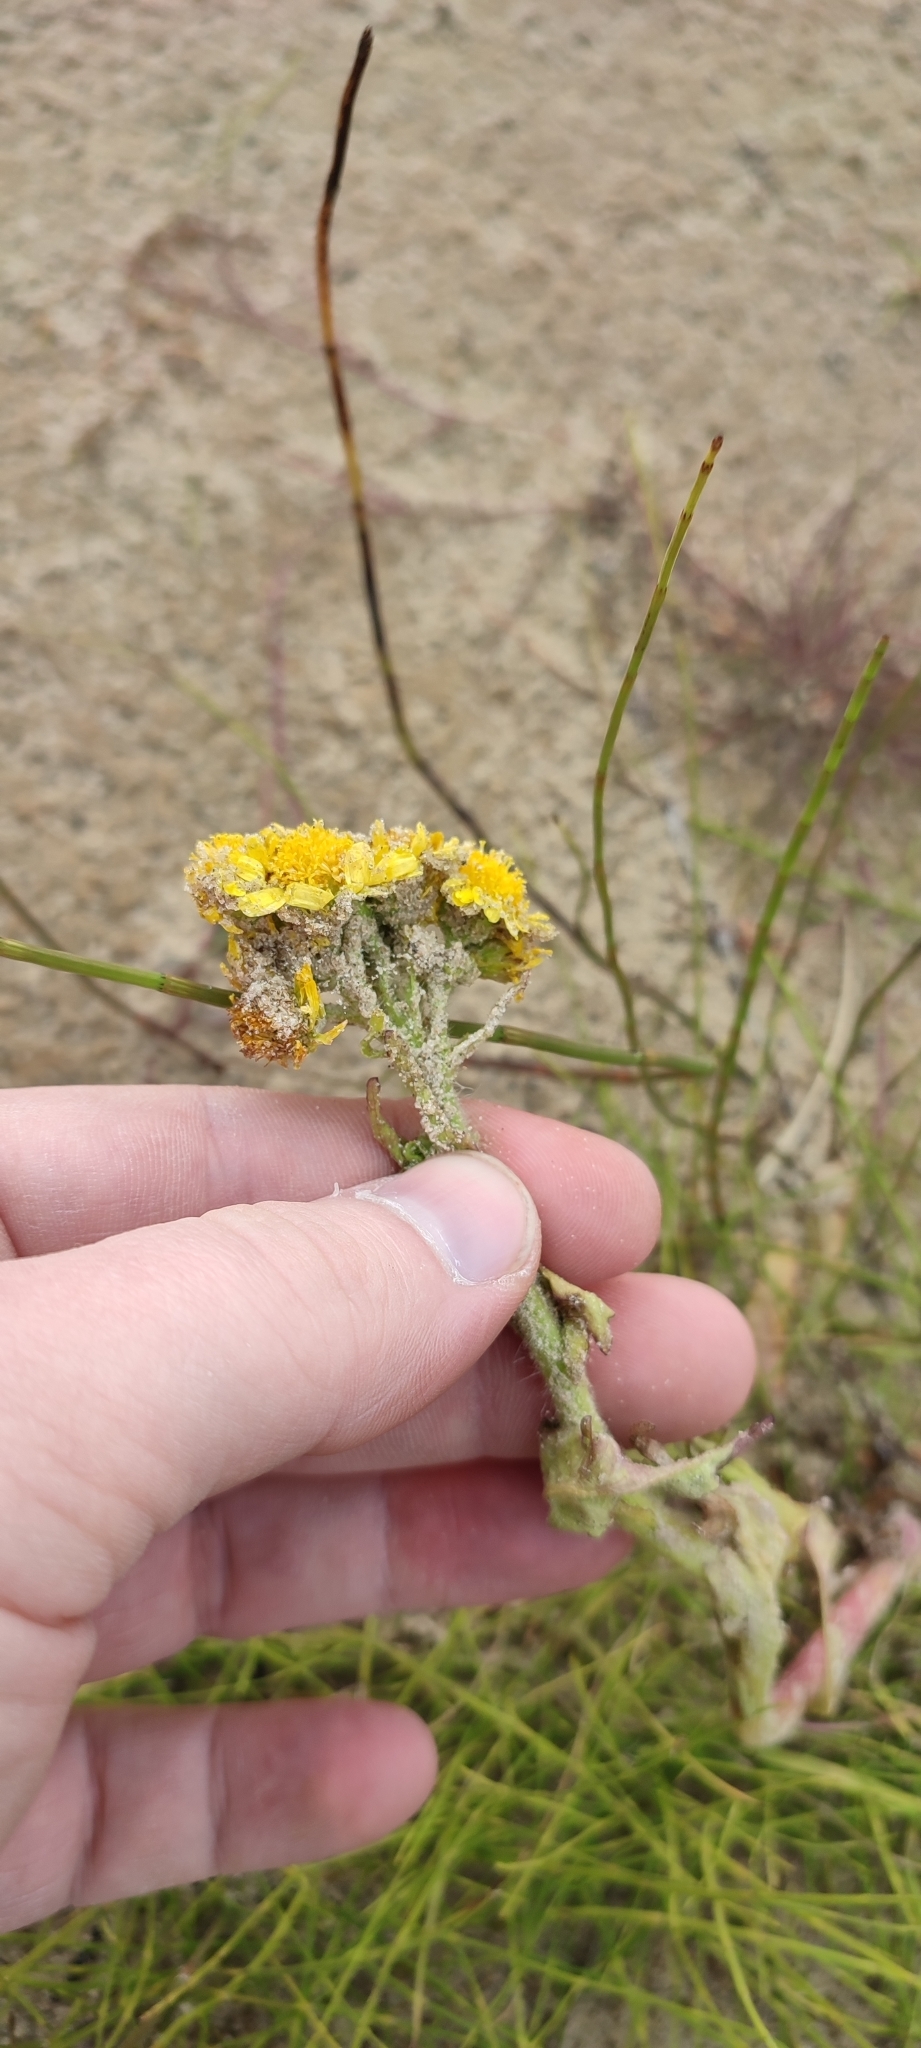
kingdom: Plantae
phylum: Tracheophyta
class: Magnoliopsida
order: Asterales
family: Asteraceae
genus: Tephroseris
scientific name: Tephroseris palustris
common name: Marsh fleawort
